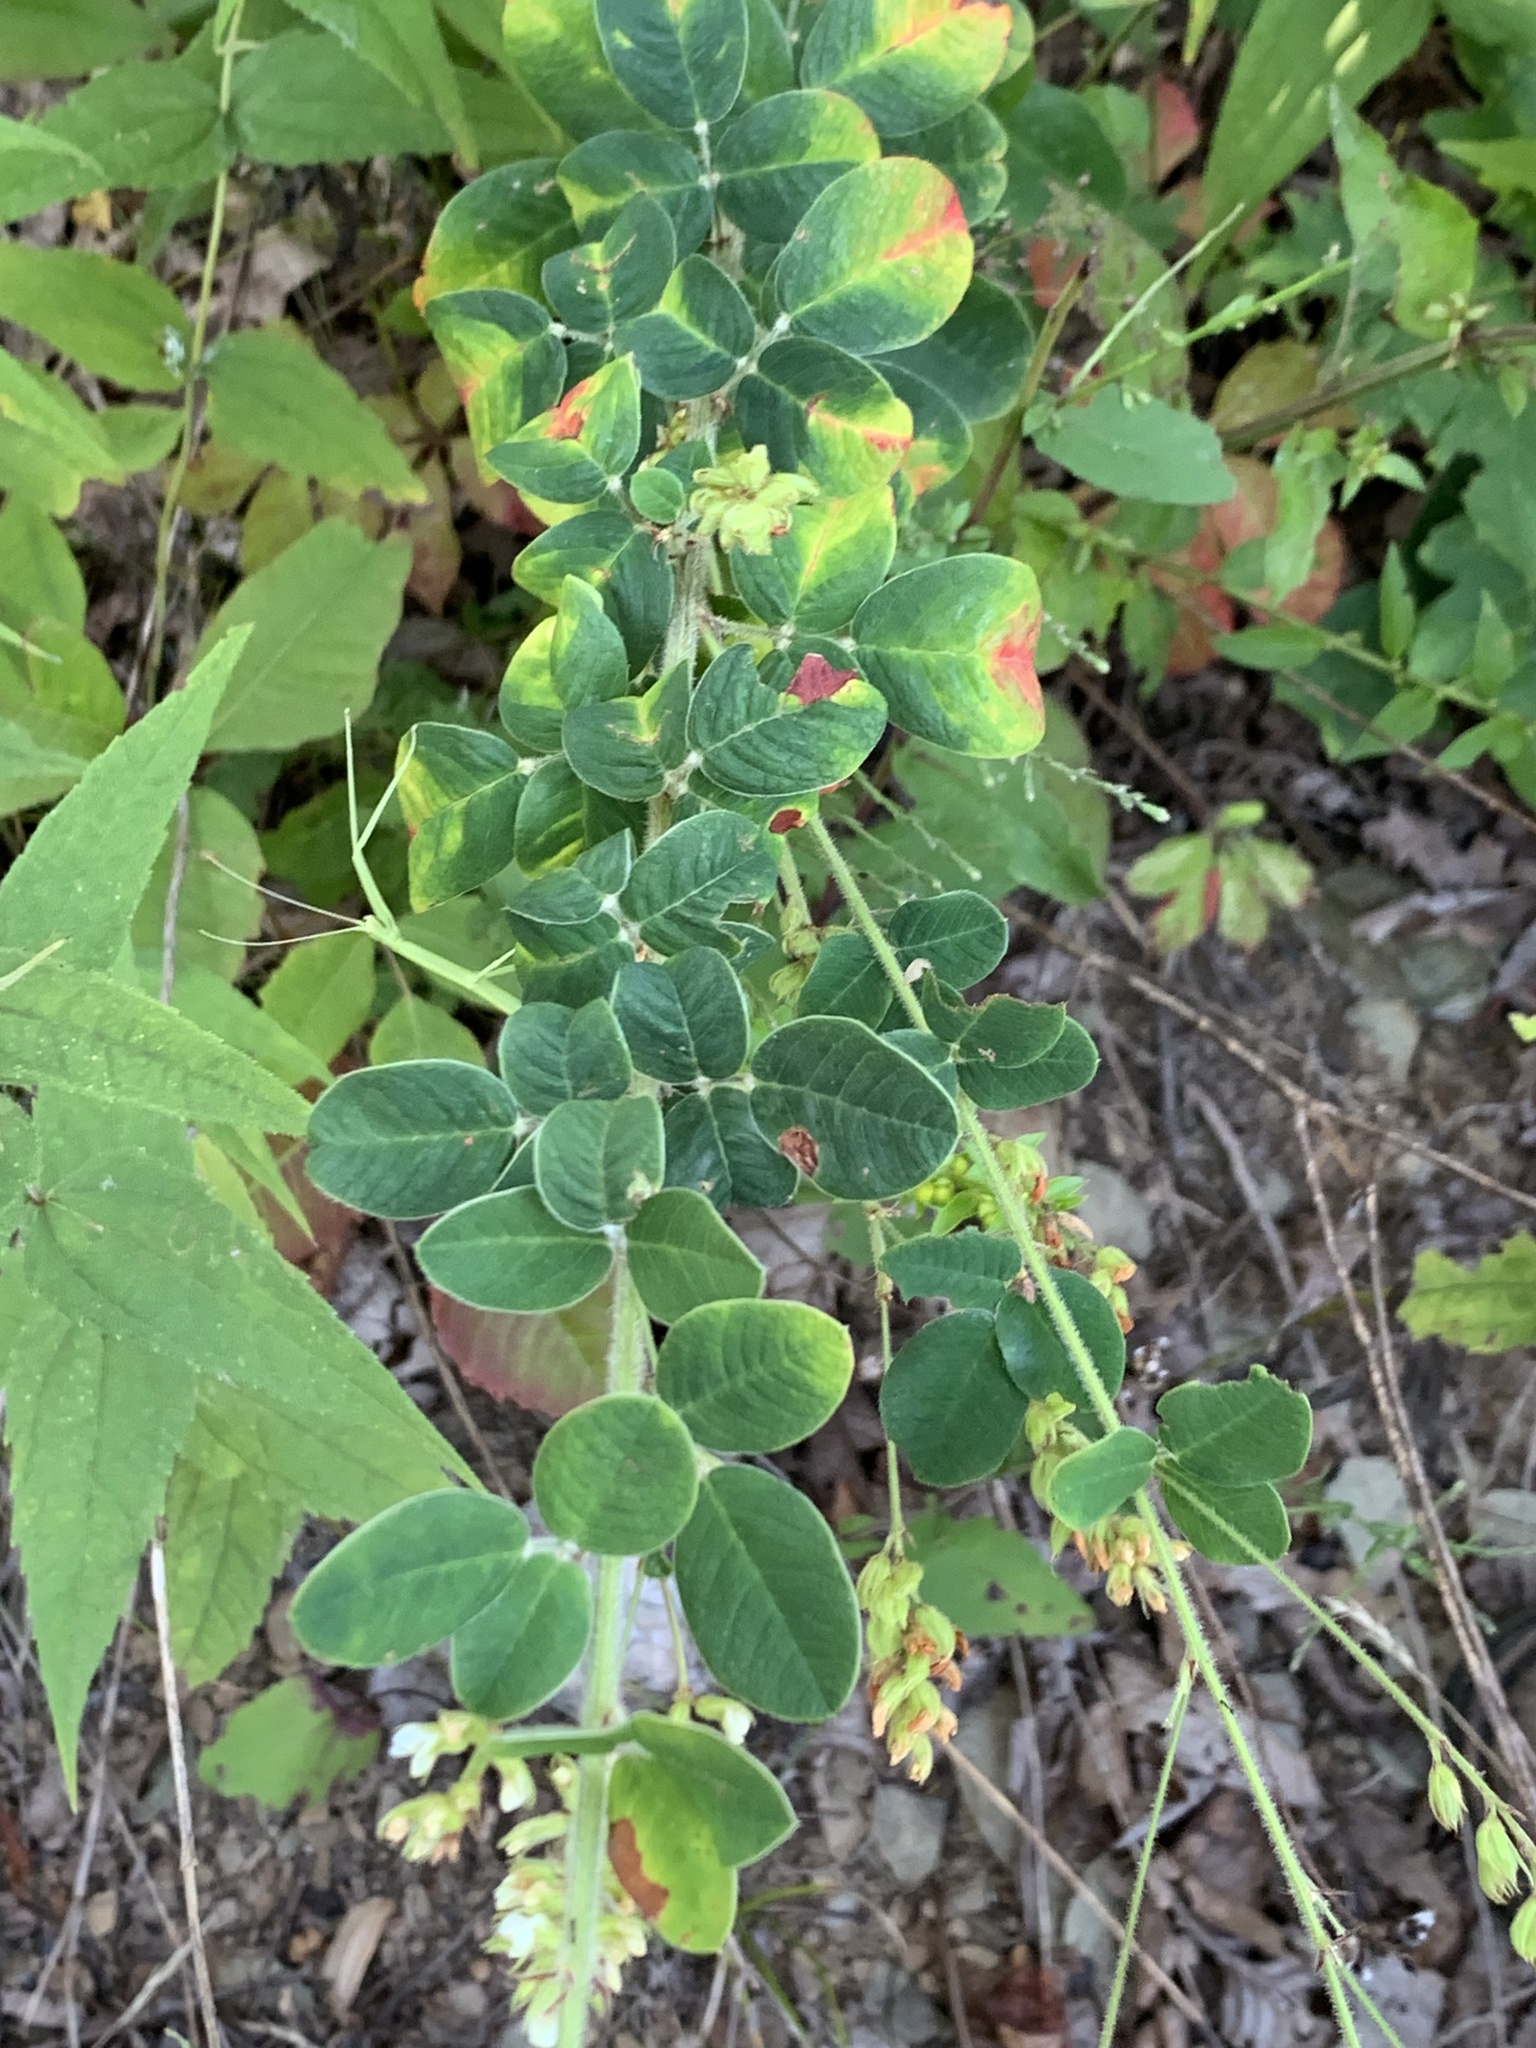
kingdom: Plantae
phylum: Tracheophyta
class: Magnoliopsida
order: Fabales
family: Fabaceae
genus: Lespedeza
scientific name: Lespedeza hirta
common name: Hairy lespedeza
